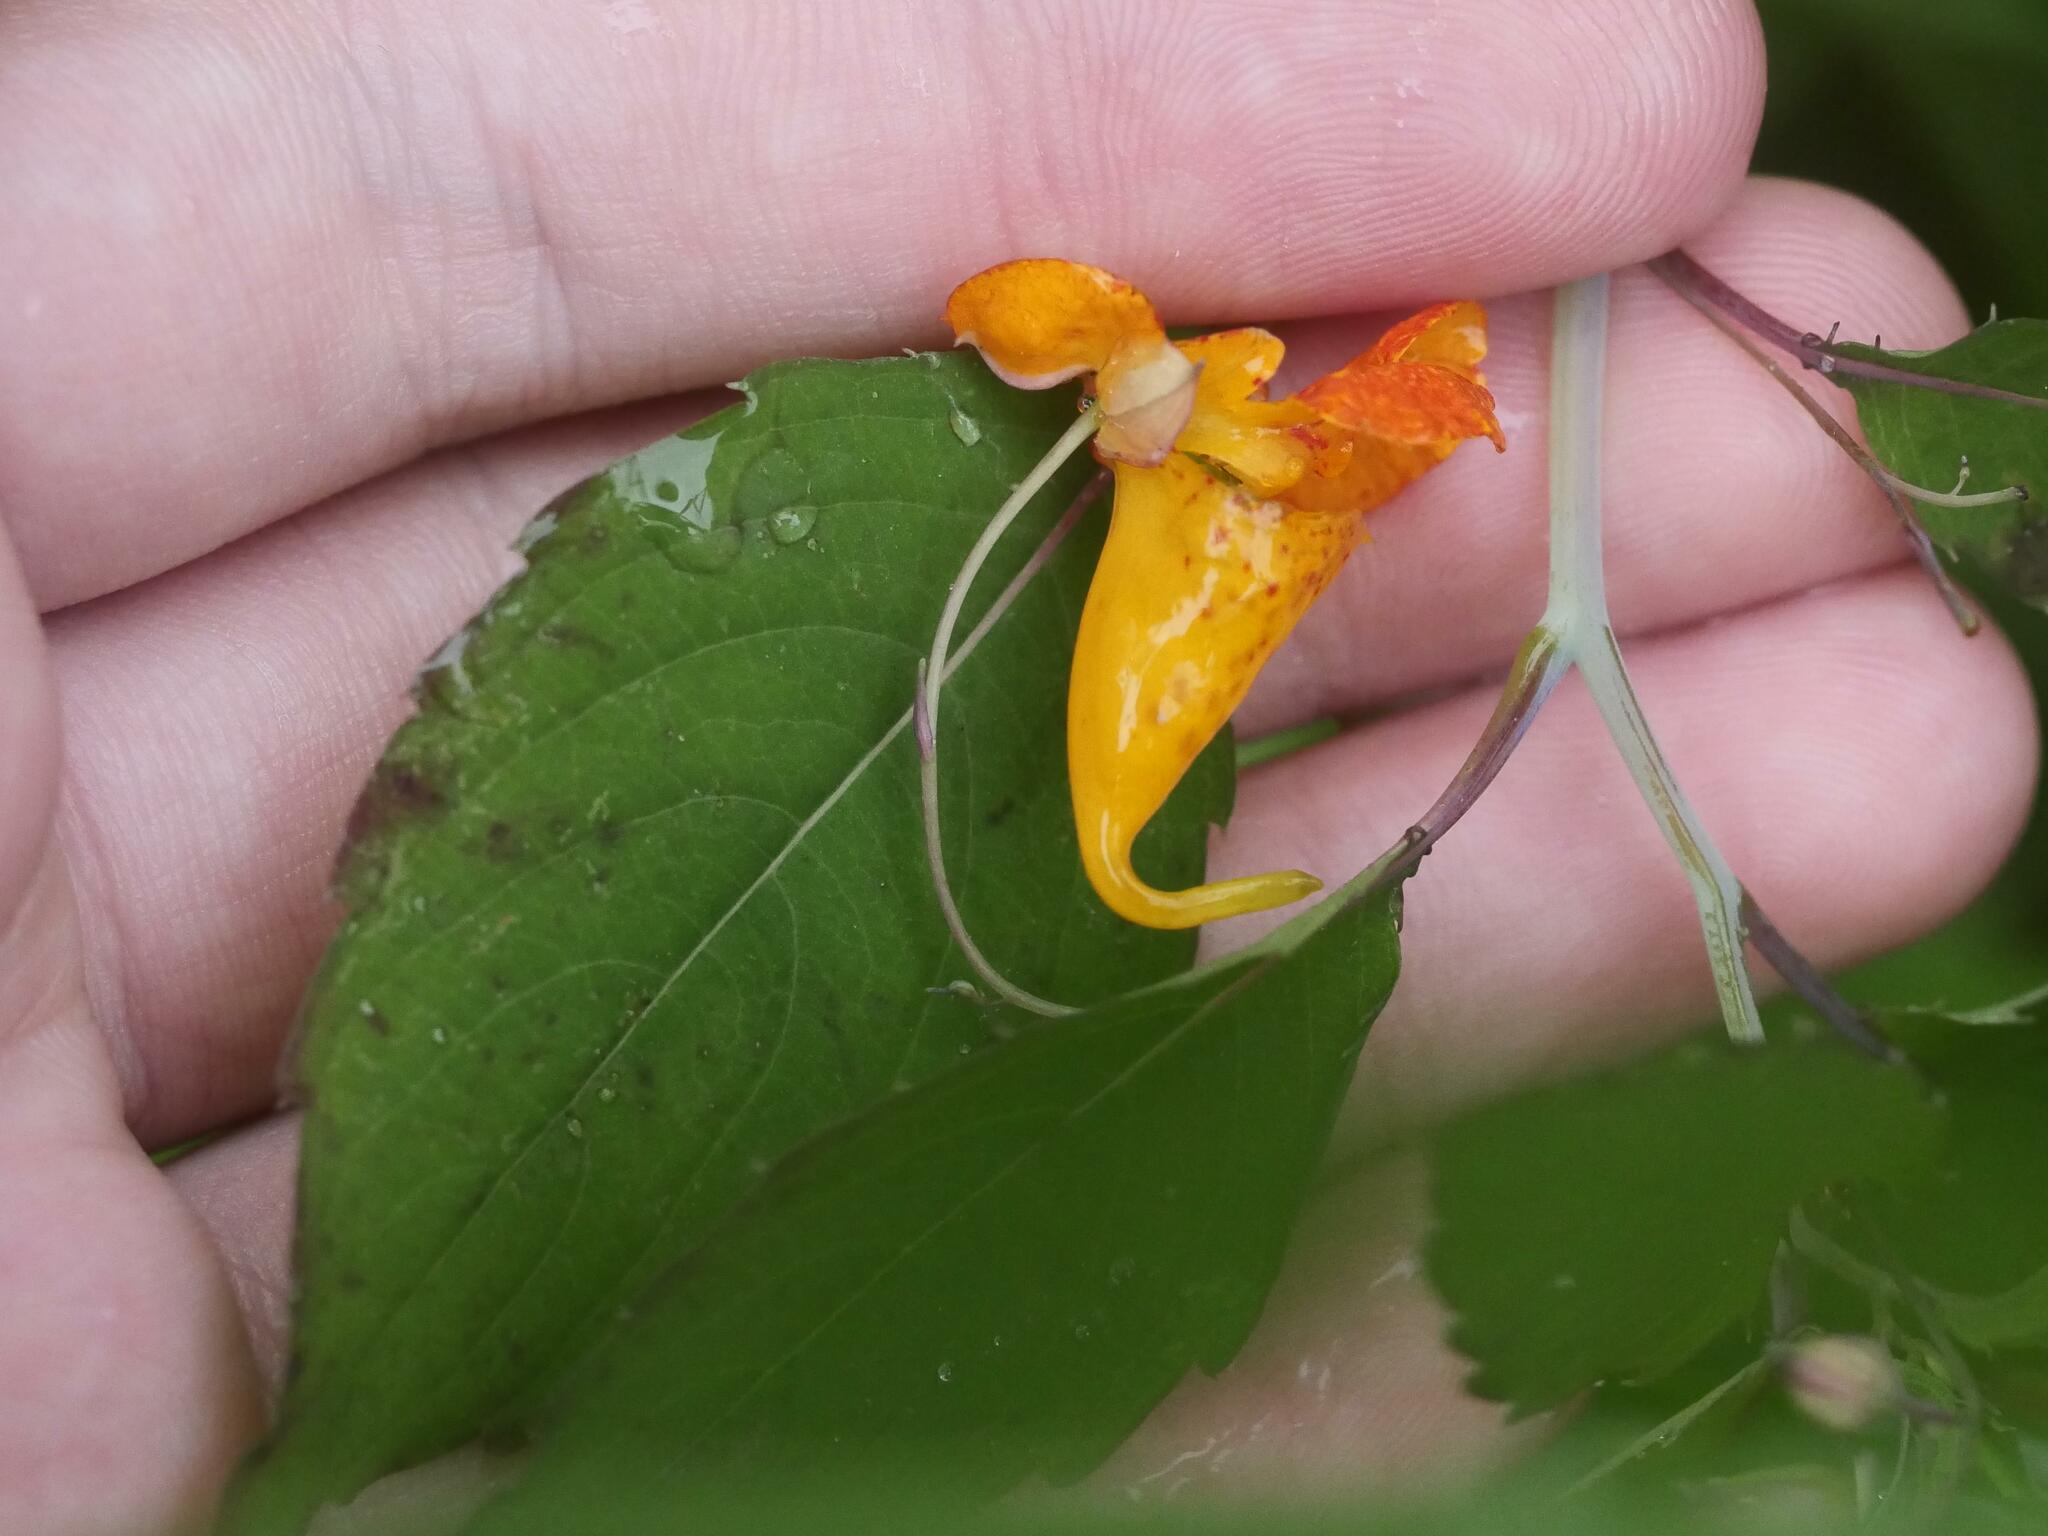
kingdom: Plantae
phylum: Tracheophyta
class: Magnoliopsida
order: Ericales
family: Balsaminaceae
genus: Impatiens
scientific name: Impatiens capensis
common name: Orange balsam
